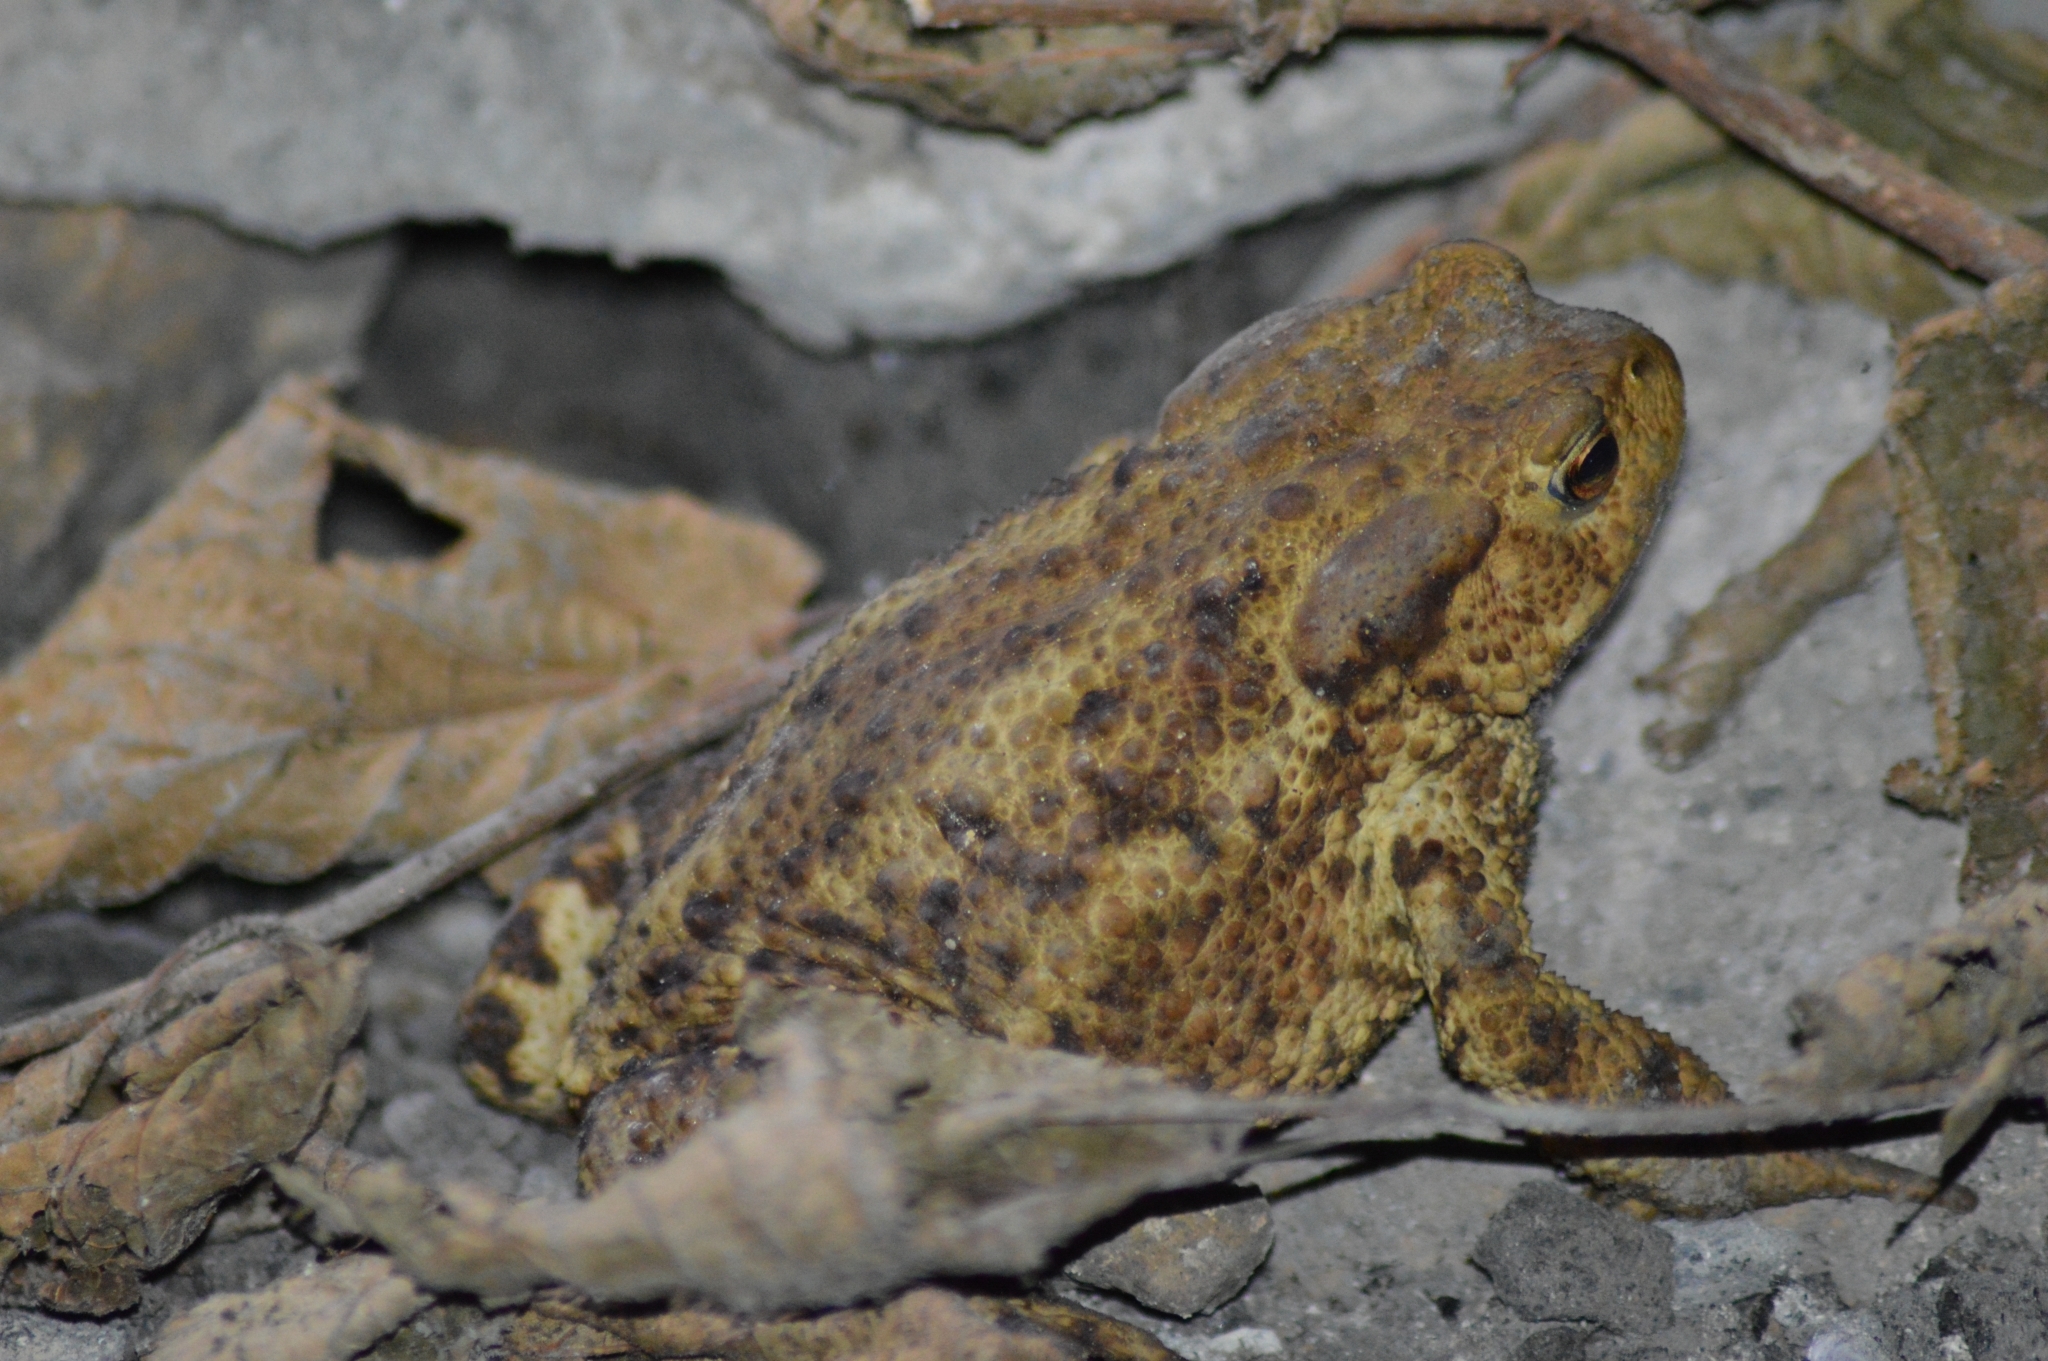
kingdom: Animalia
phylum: Chordata
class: Amphibia
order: Anura
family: Bufonidae
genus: Bufo
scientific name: Bufo bufo
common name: Common toad
